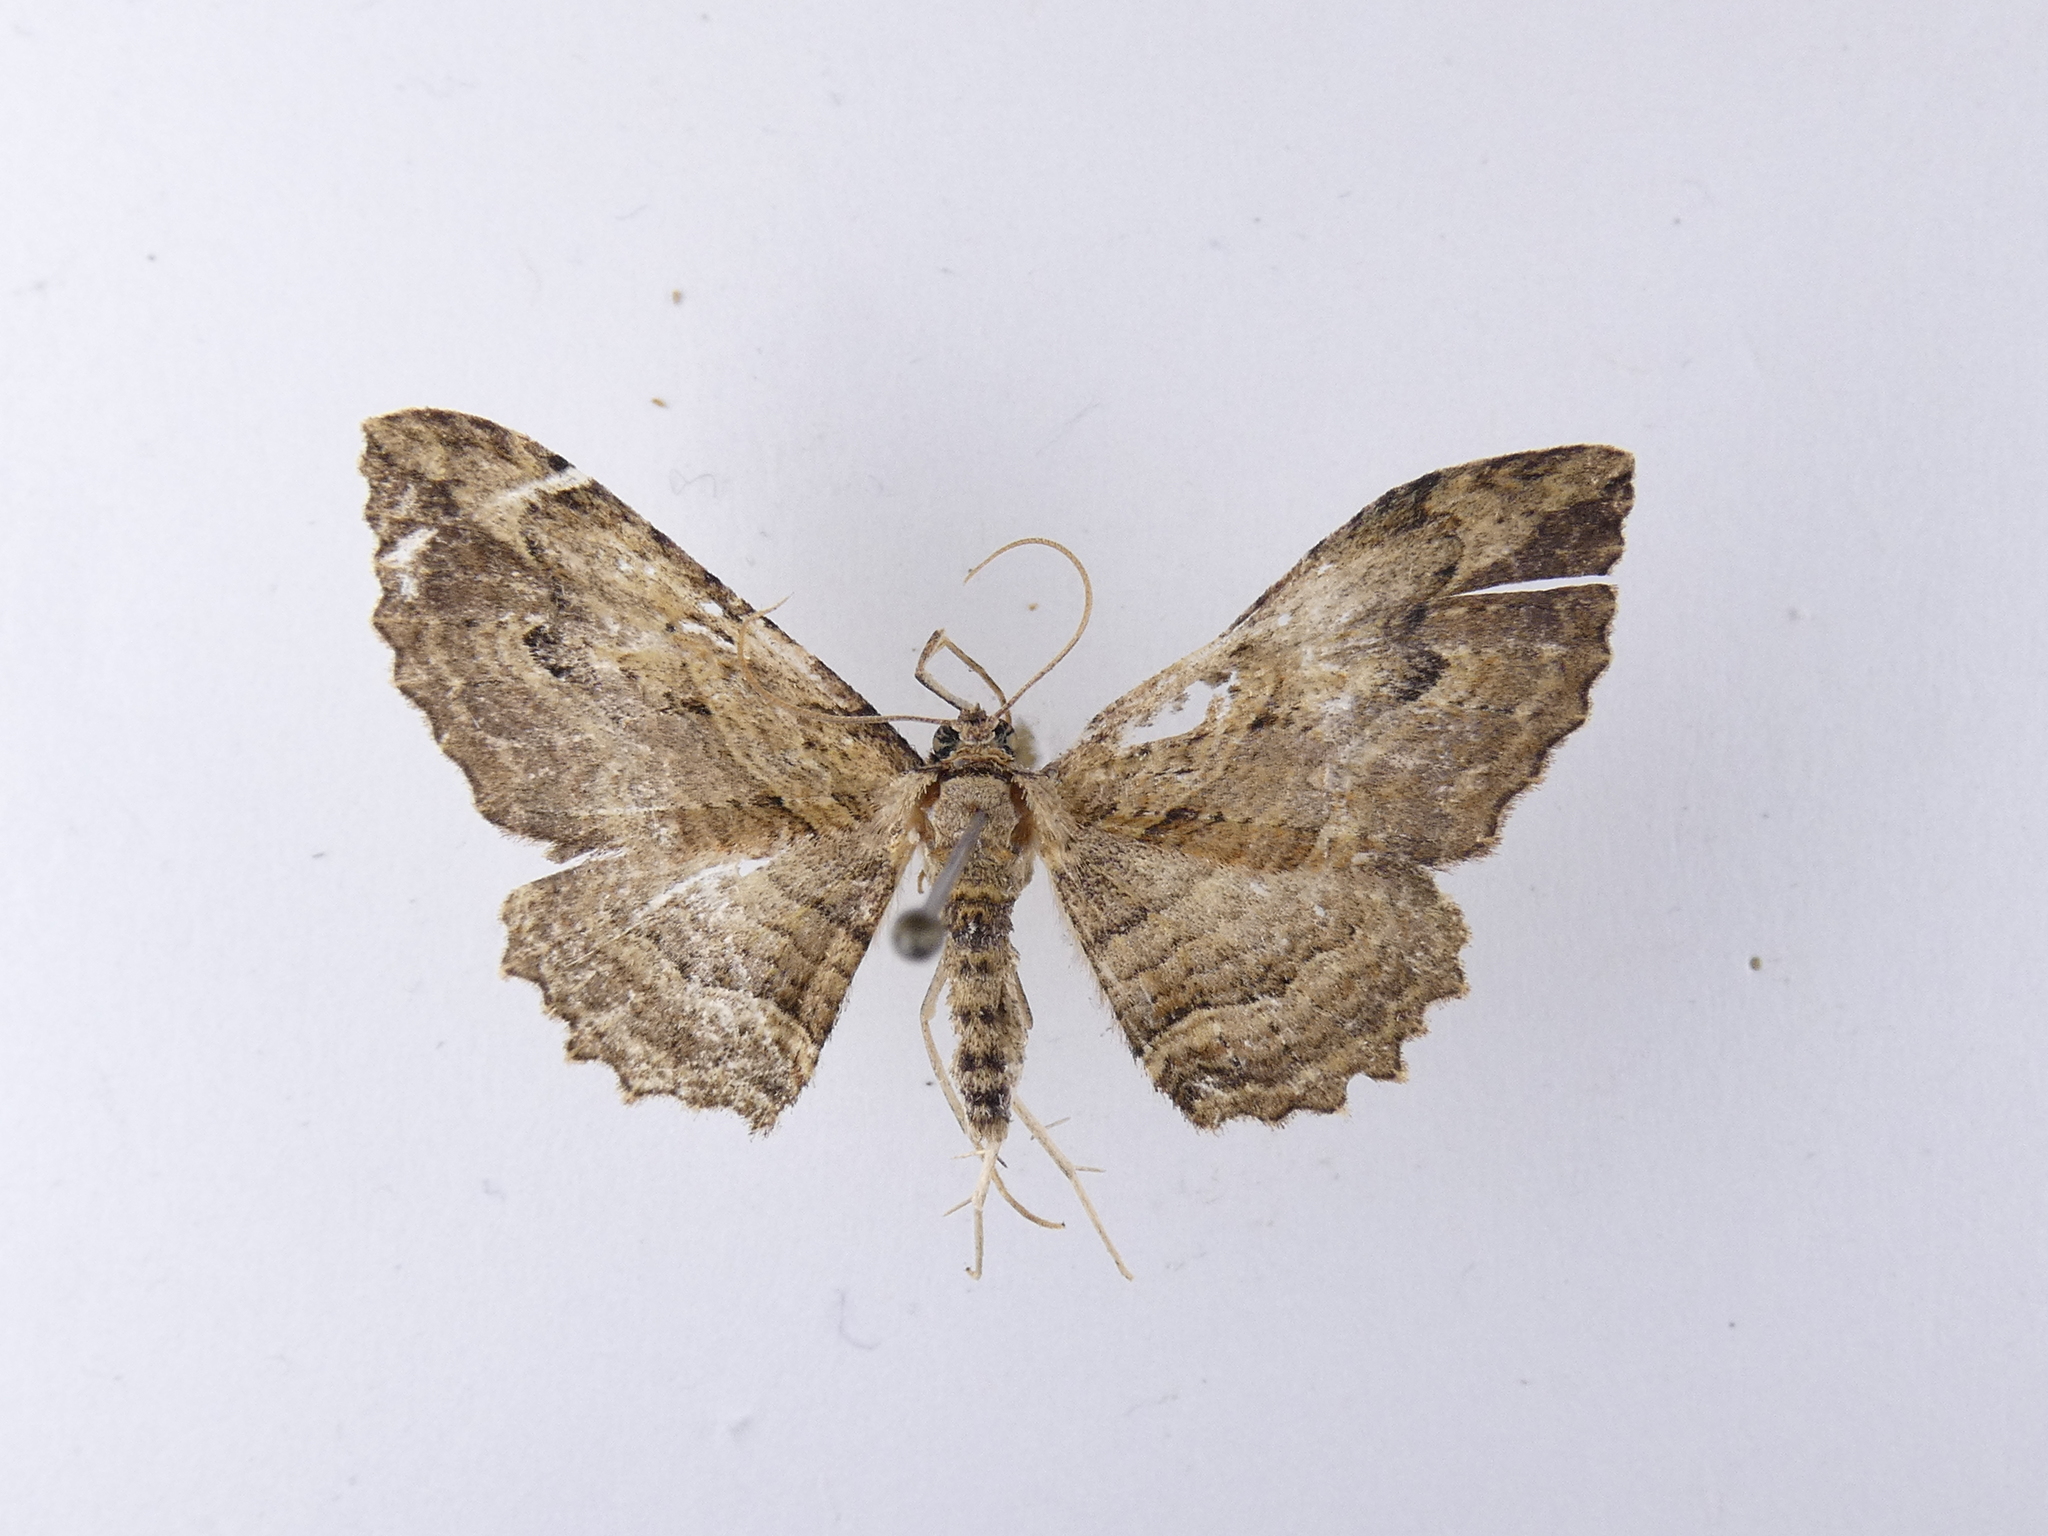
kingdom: Animalia
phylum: Arthropoda
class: Insecta
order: Lepidoptera
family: Geometridae
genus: Austrocidaria
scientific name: Austrocidaria bipartita
